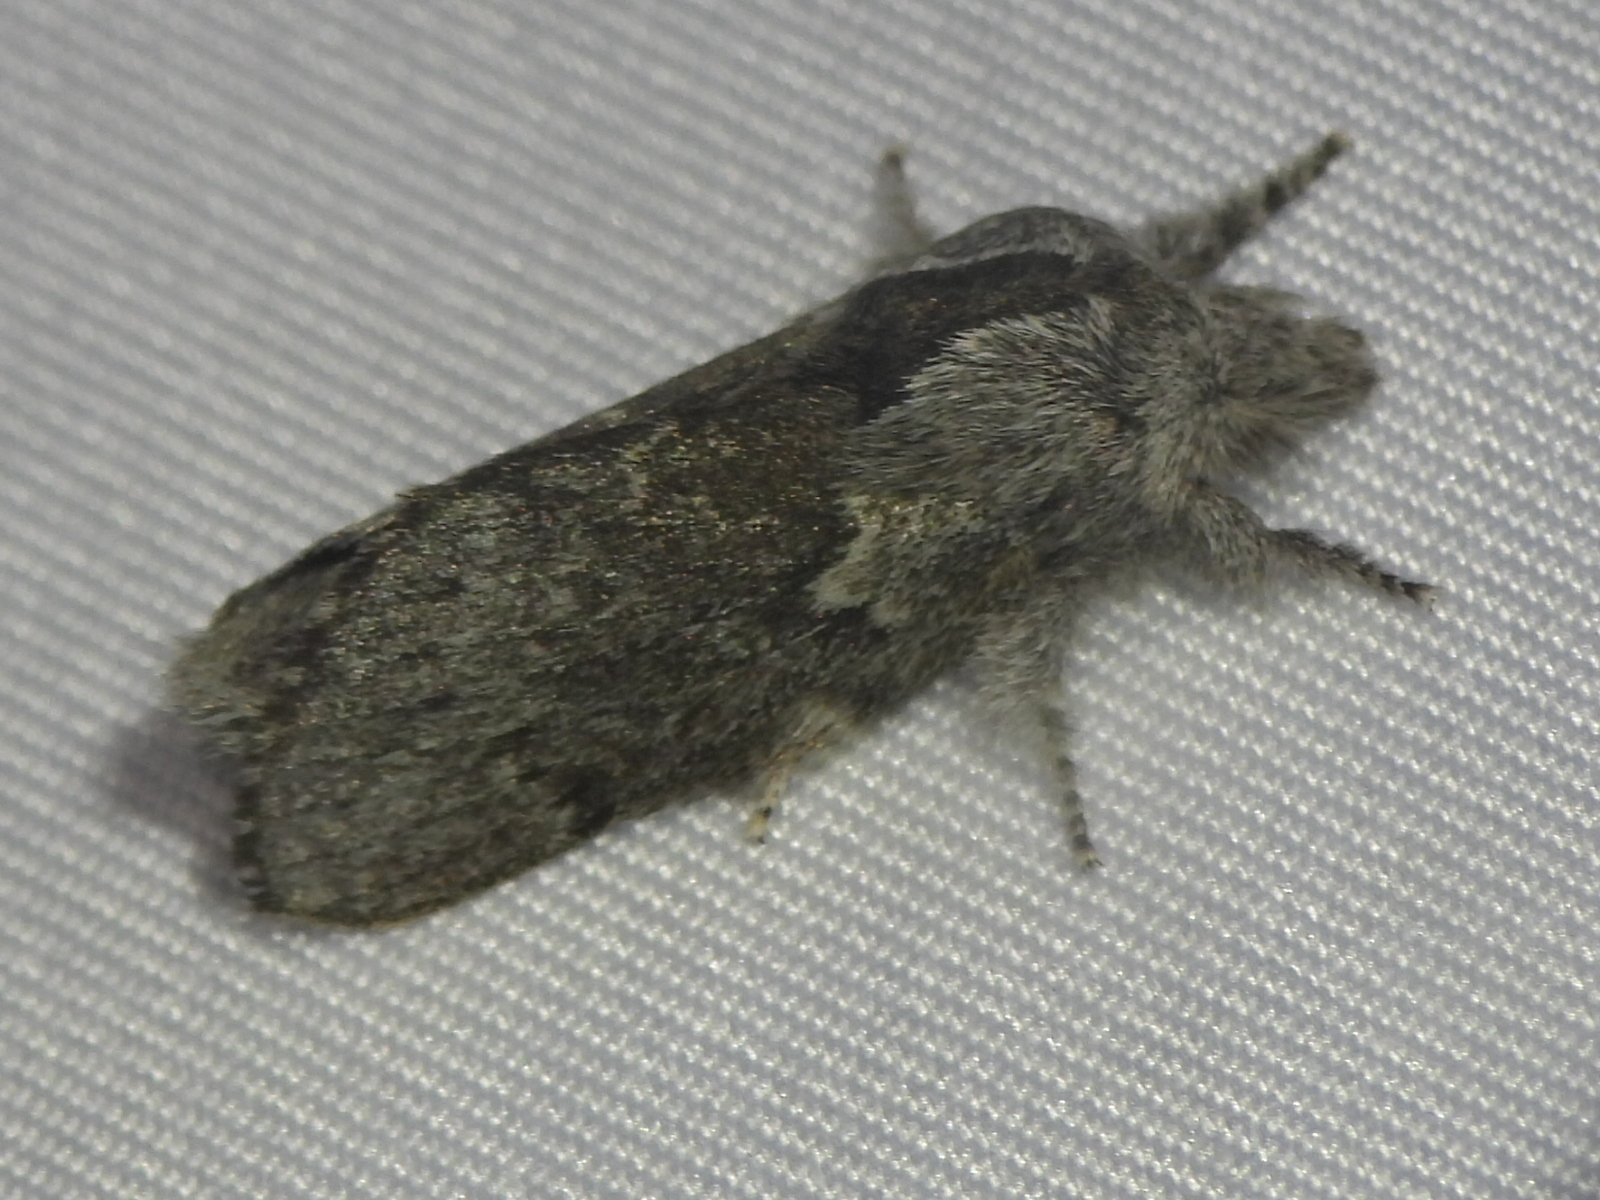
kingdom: Animalia
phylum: Arthropoda
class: Insecta
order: Lepidoptera
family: Lasiocampidae
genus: Heteropacha
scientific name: Heteropacha rileyana
